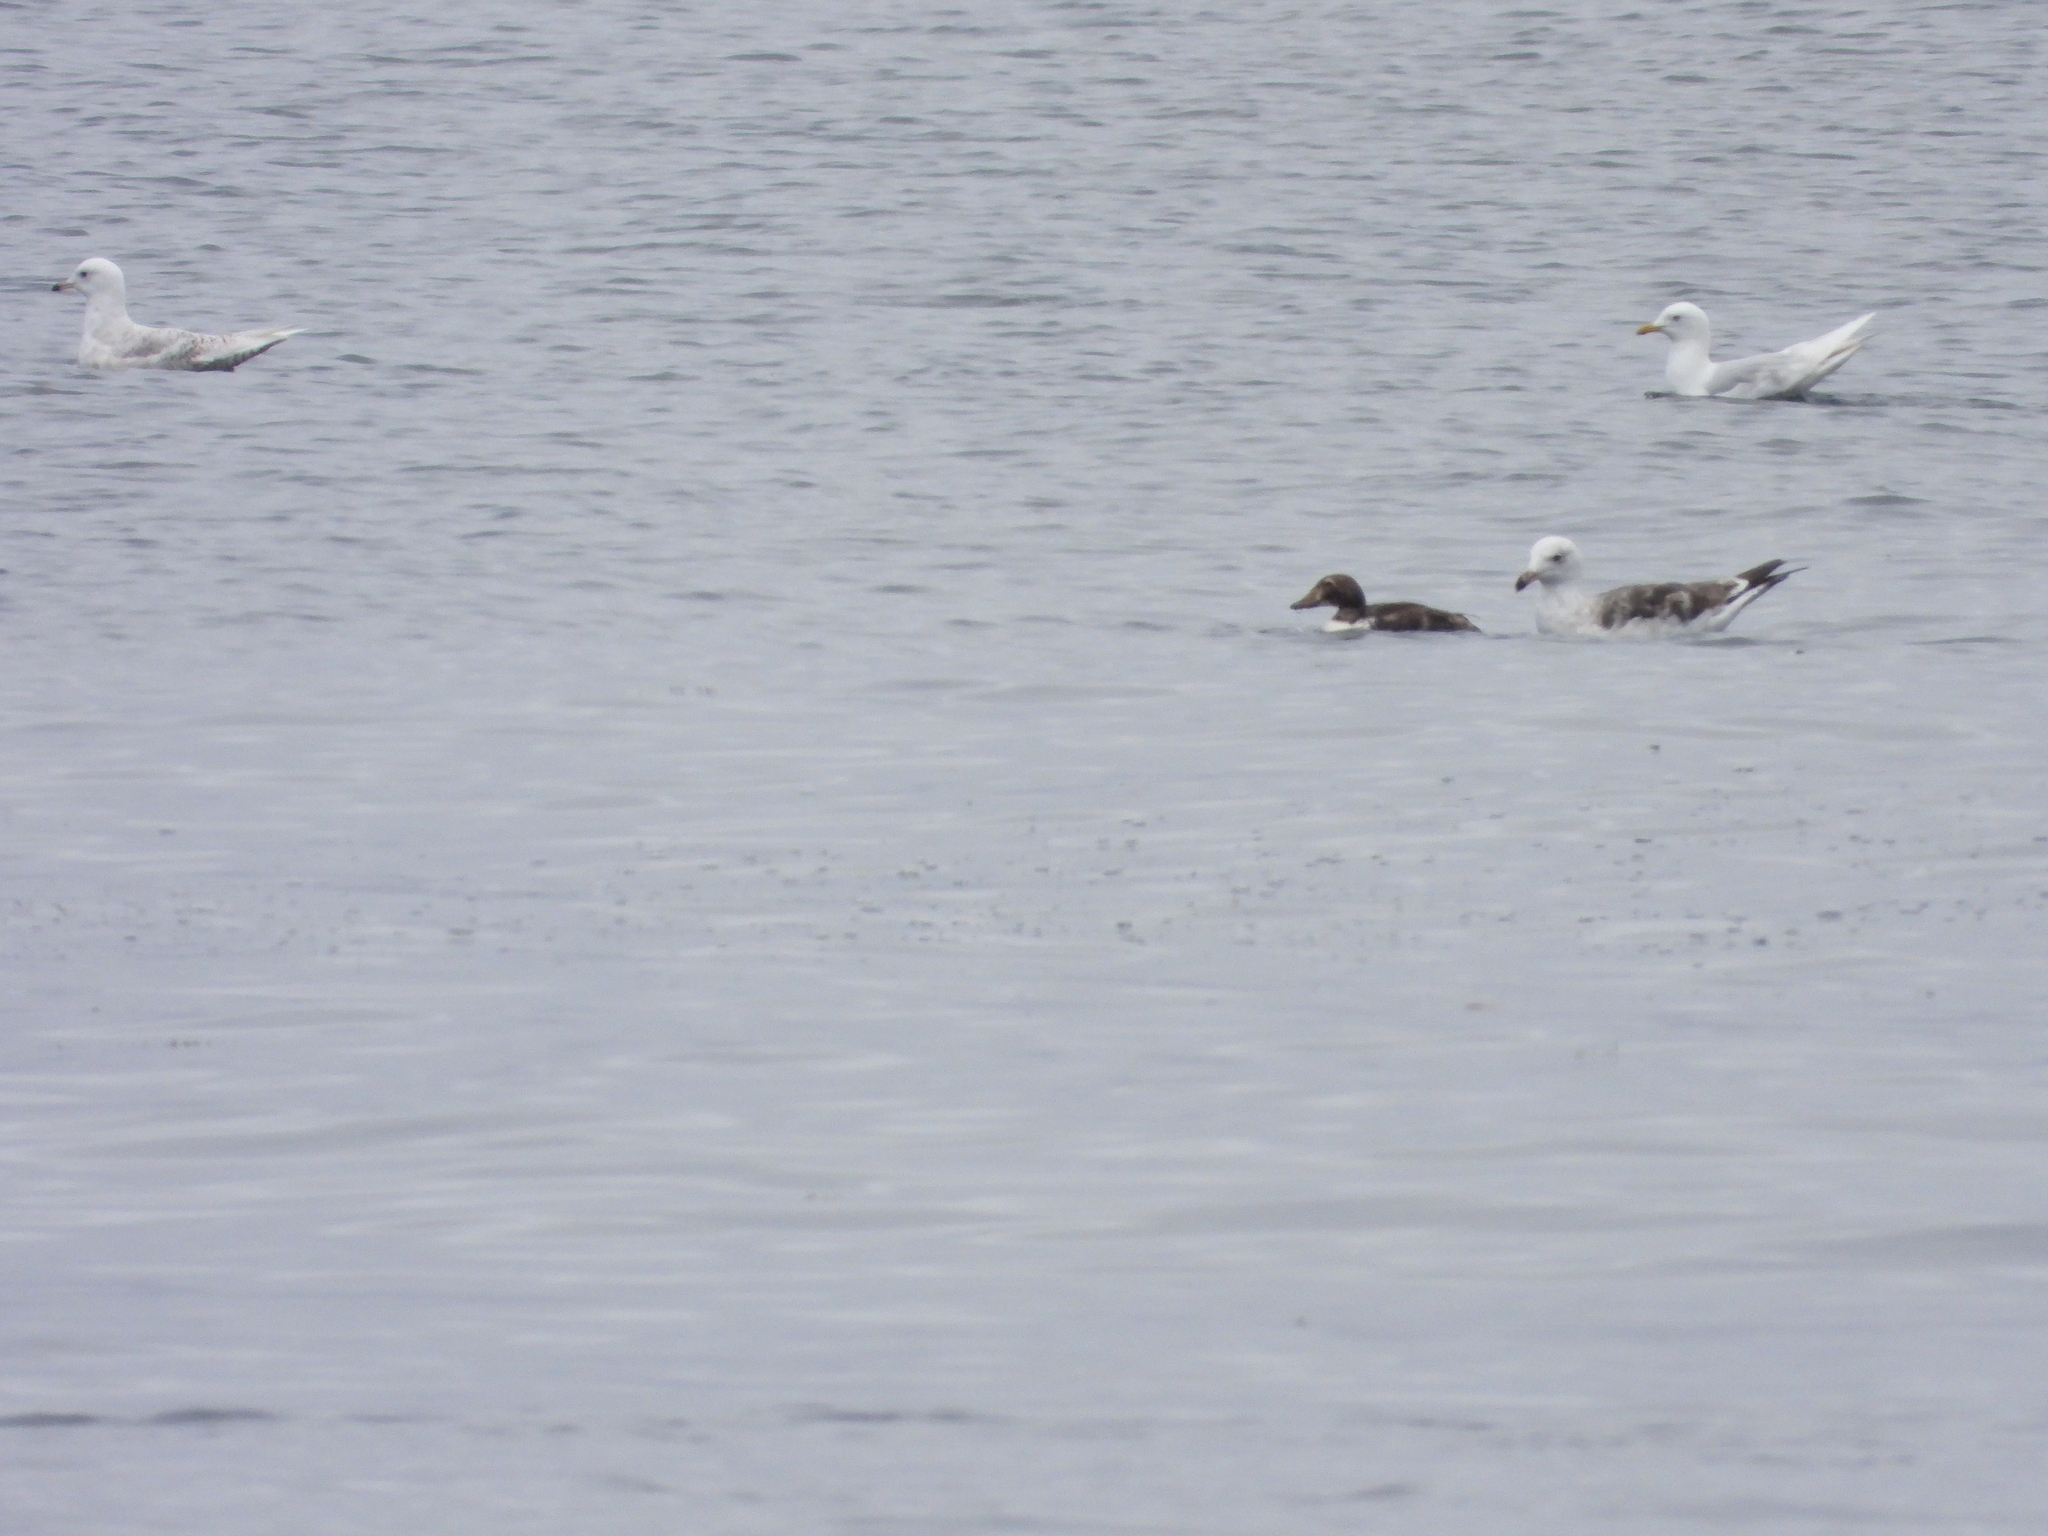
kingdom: Animalia
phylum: Chordata
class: Aves
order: Anseriformes
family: Anatidae
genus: Somateria
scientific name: Somateria mollissima
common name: Common eider
